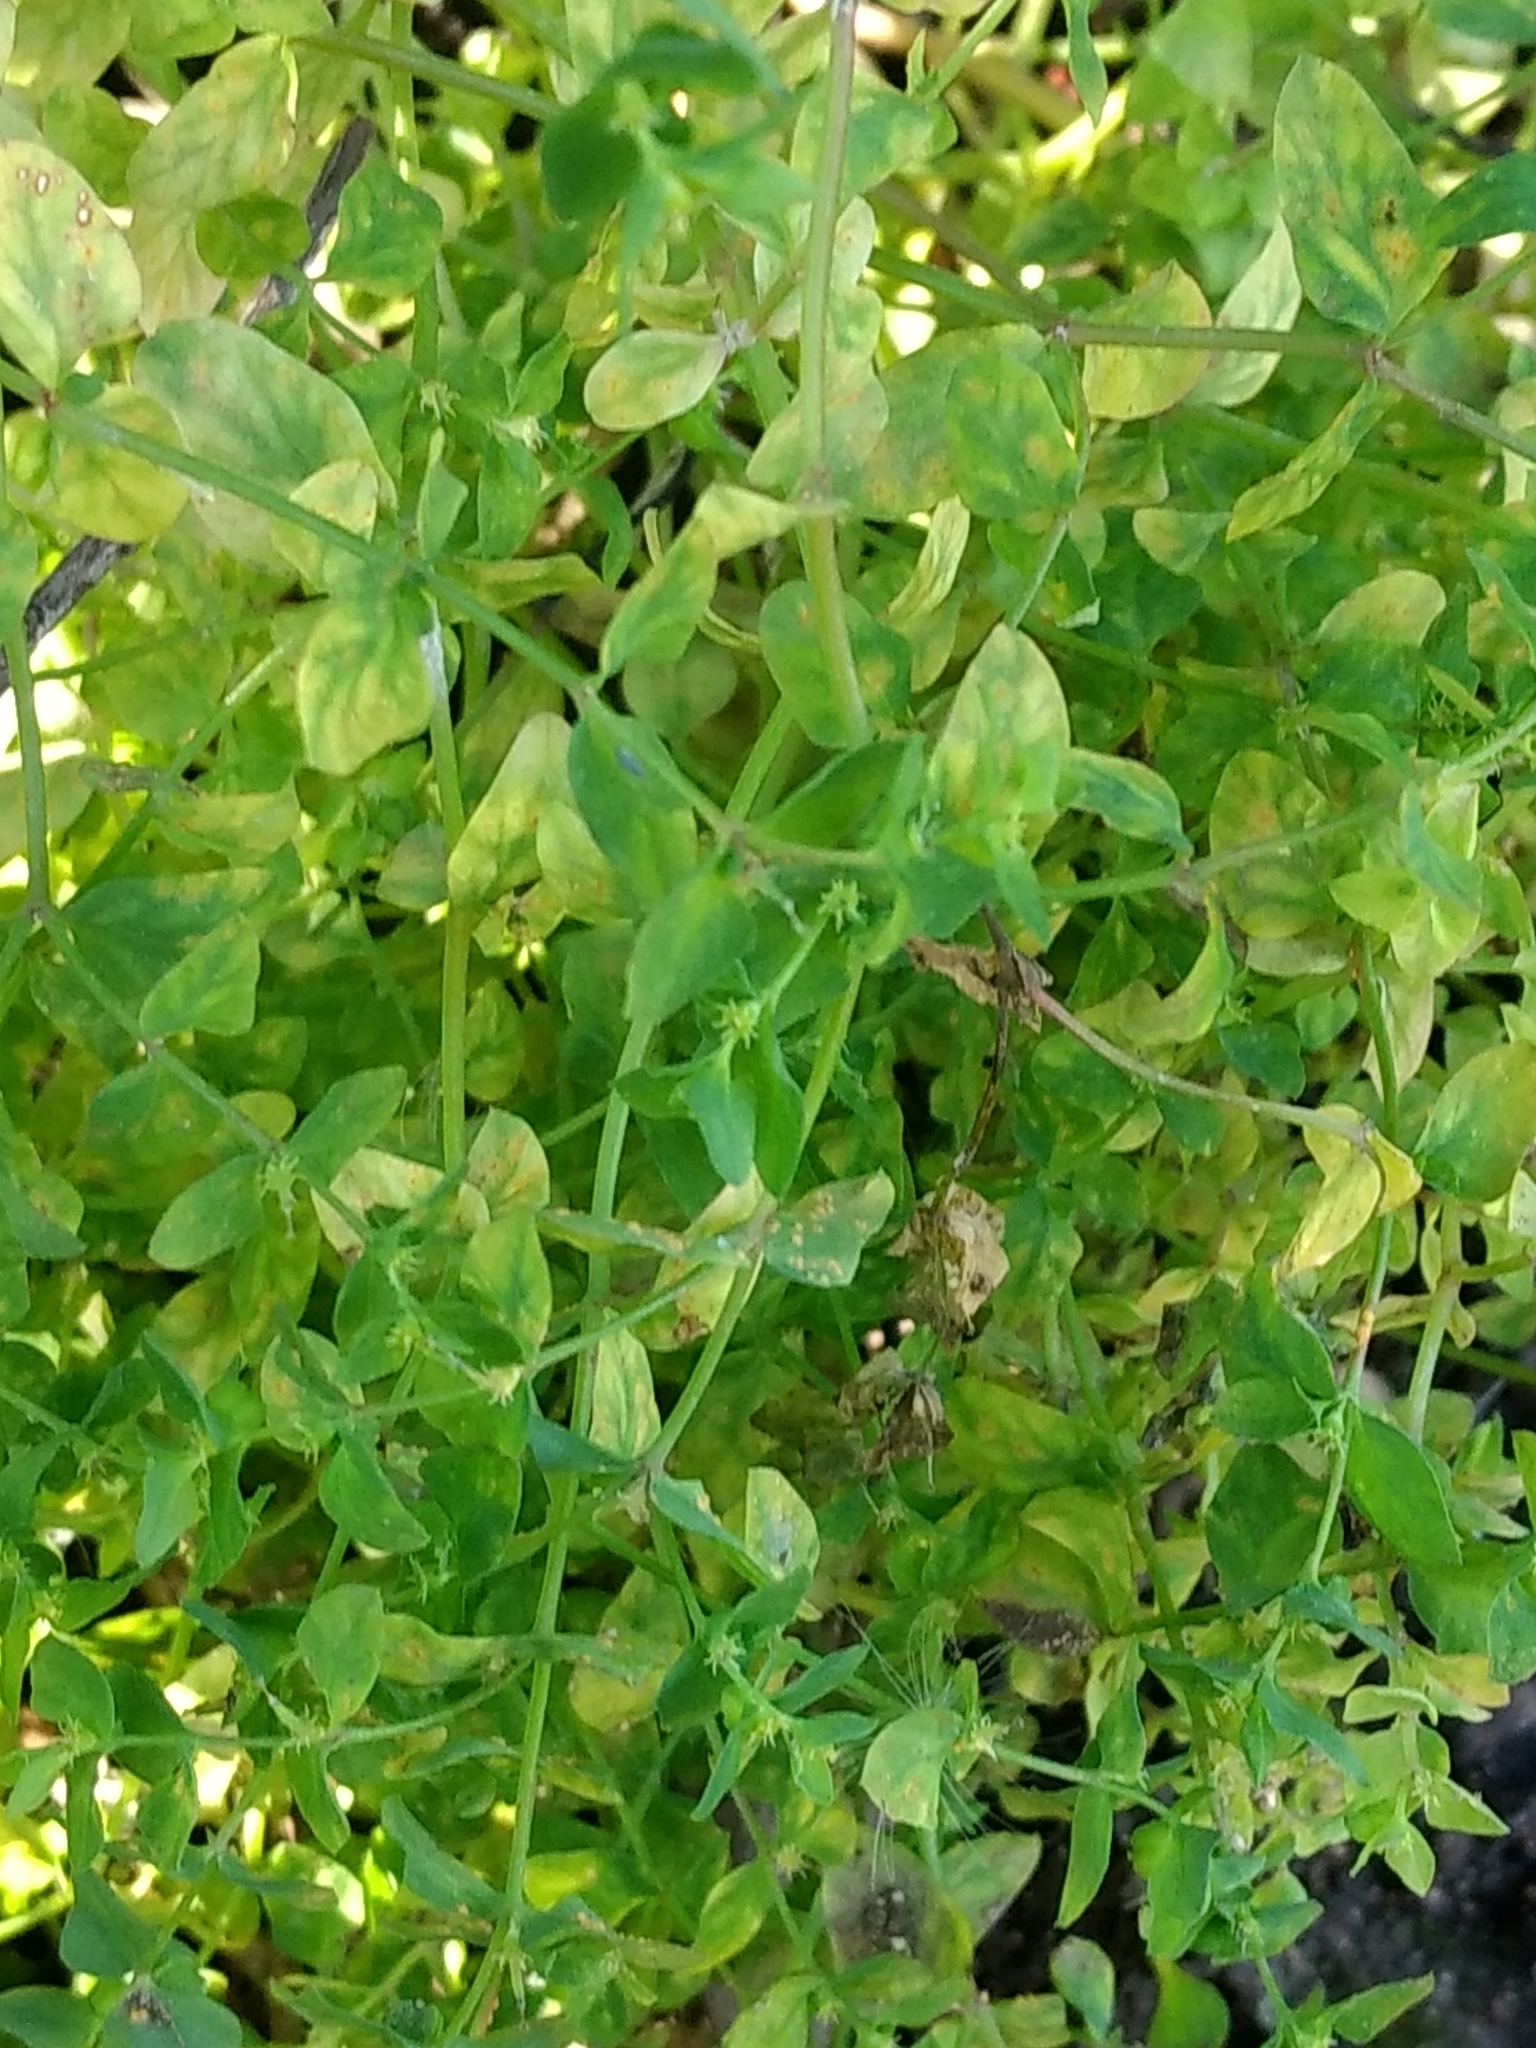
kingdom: Plantae
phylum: Tracheophyta
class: Magnoliopsida
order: Malpighiales
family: Euphorbiaceae
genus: Euphorbia
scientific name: Euphorbia peplus
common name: Petty spurge
